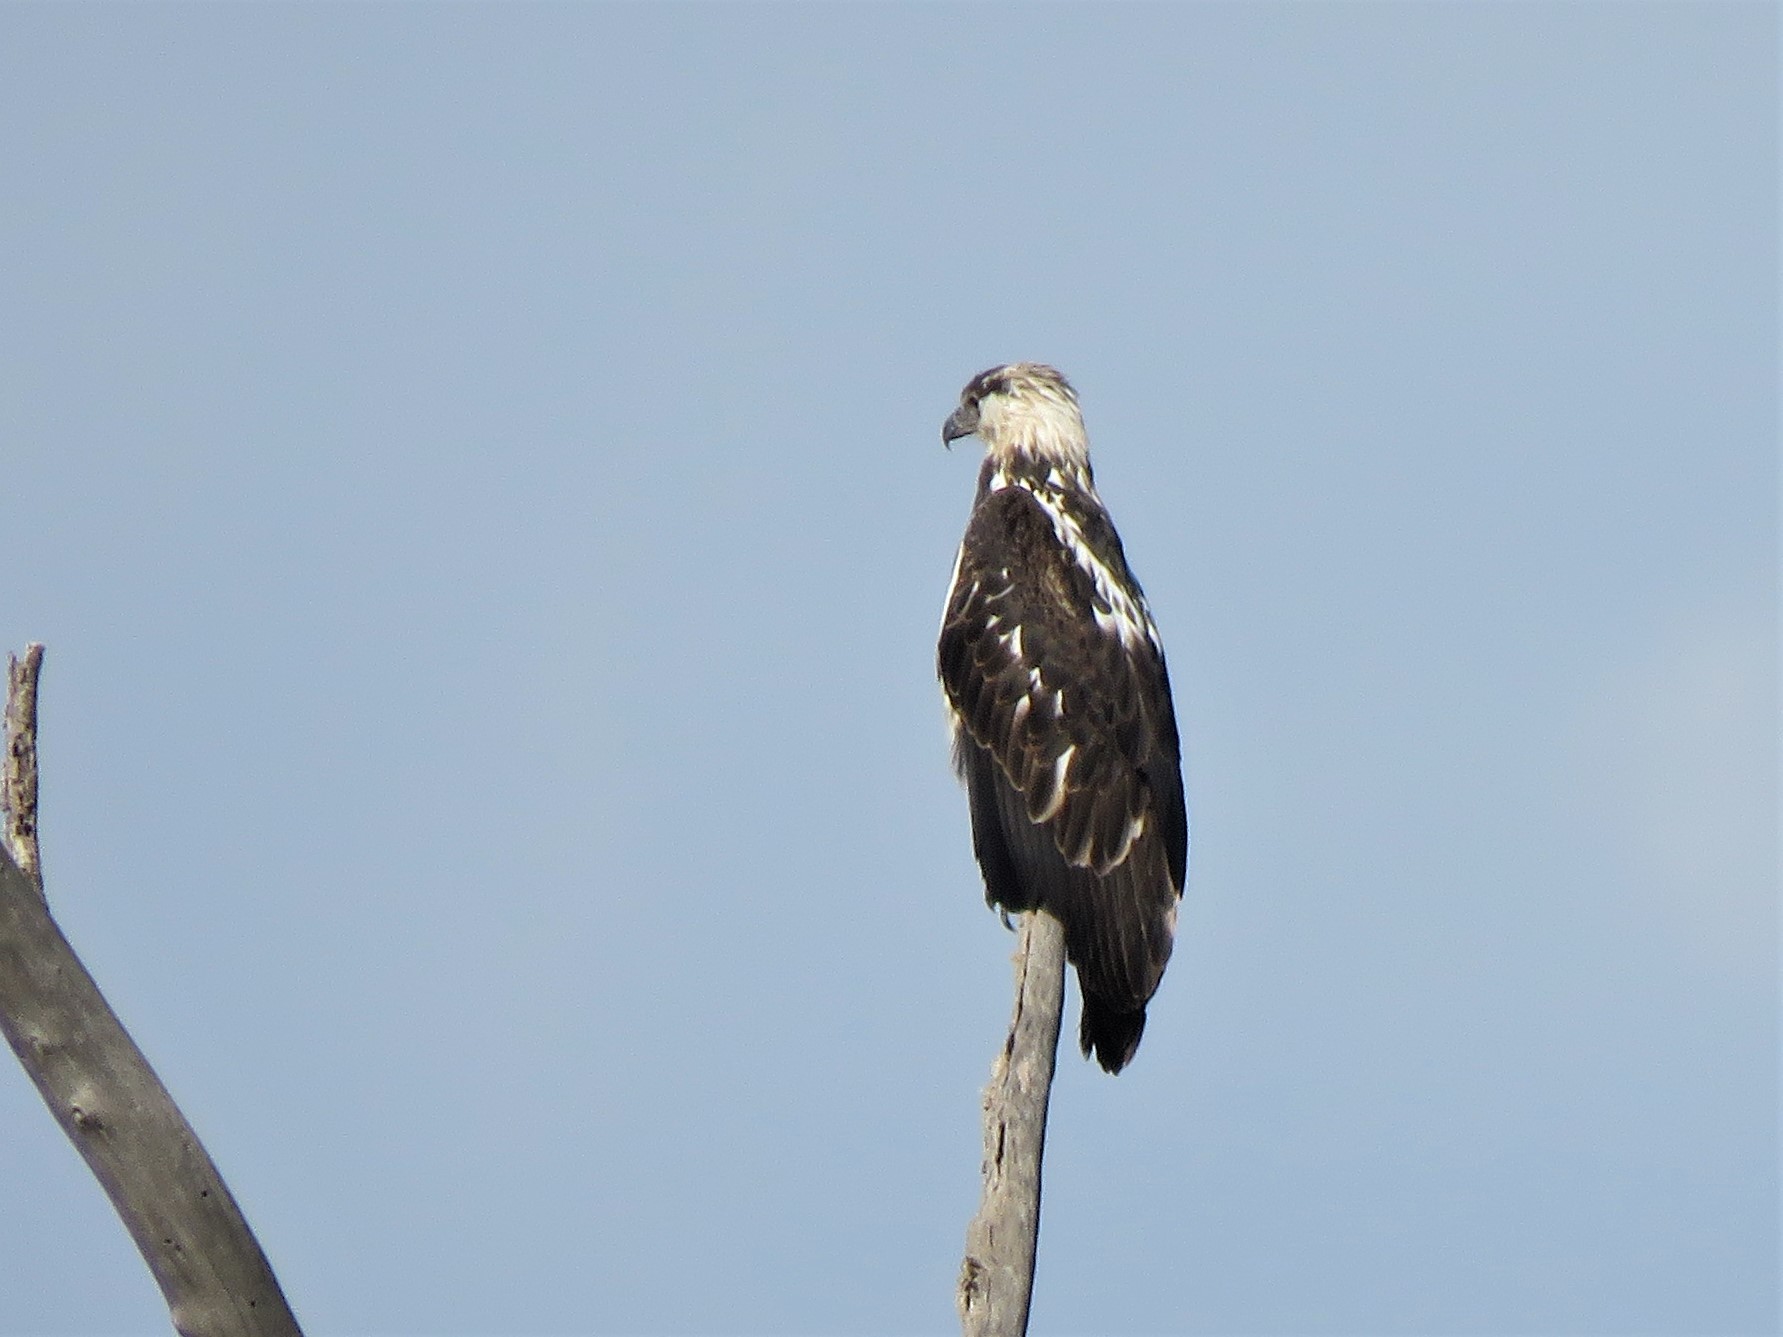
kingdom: Animalia
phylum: Chordata
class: Aves
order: Accipitriformes
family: Accipitridae
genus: Haliaeetus
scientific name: Haliaeetus vocifer
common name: African fish eagle
